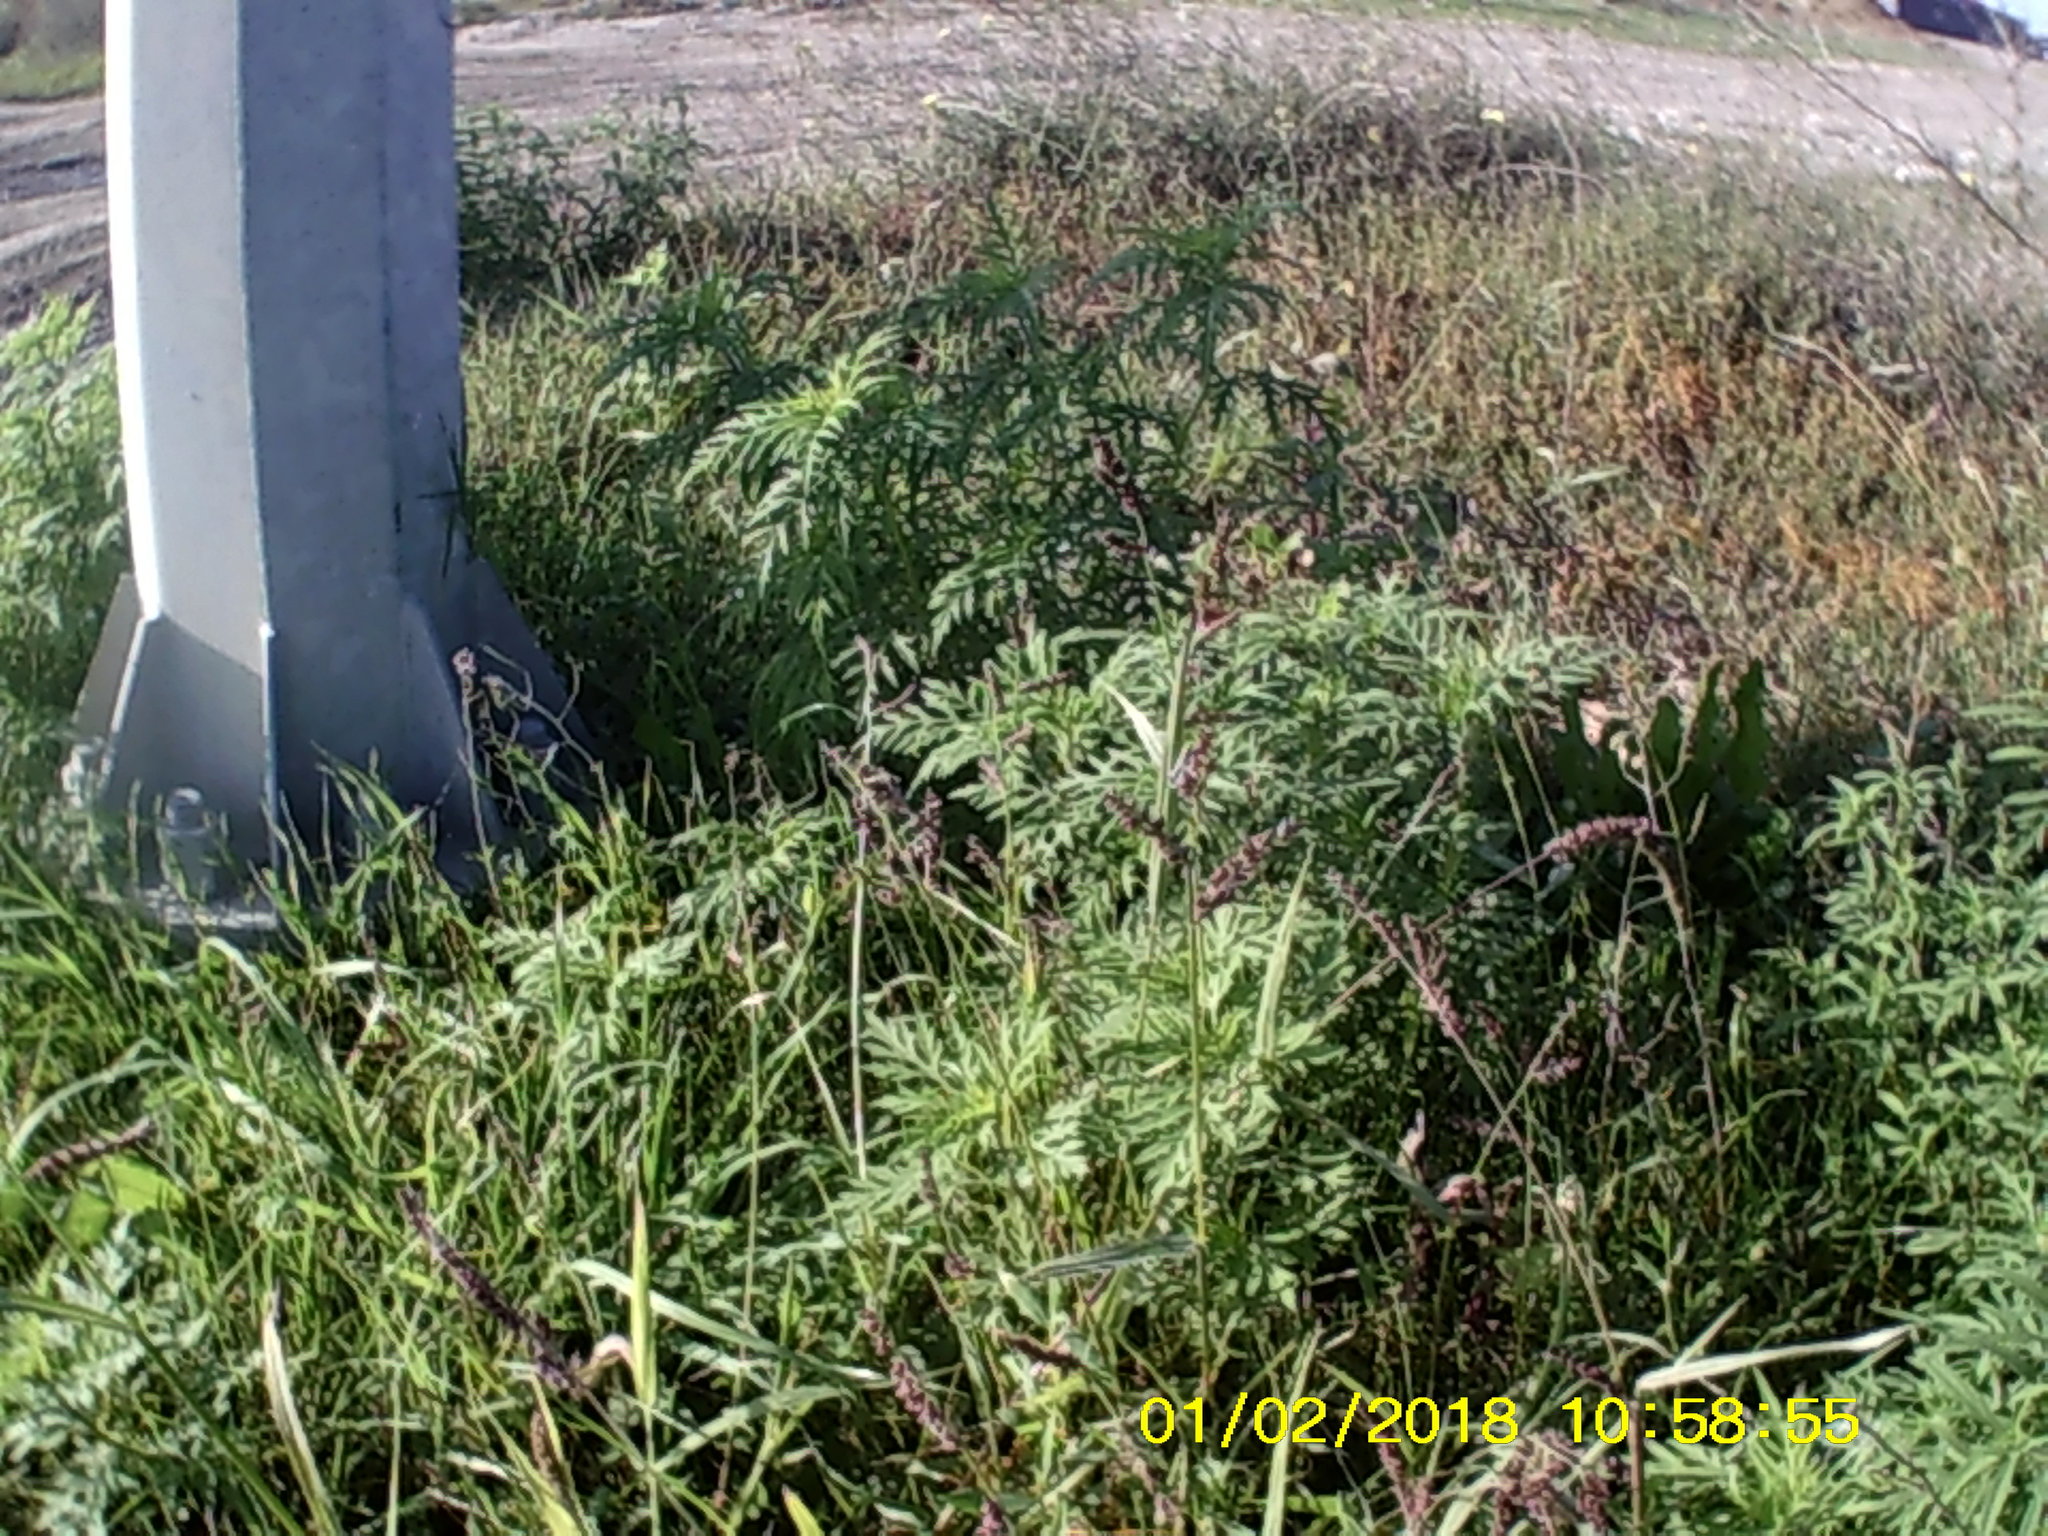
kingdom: Plantae
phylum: Tracheophyta
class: Magnoliopsida
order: Asterales
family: Asteraceae
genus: Ambrosia
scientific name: Ambrosia artemisiifolia
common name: Annual ragweed
